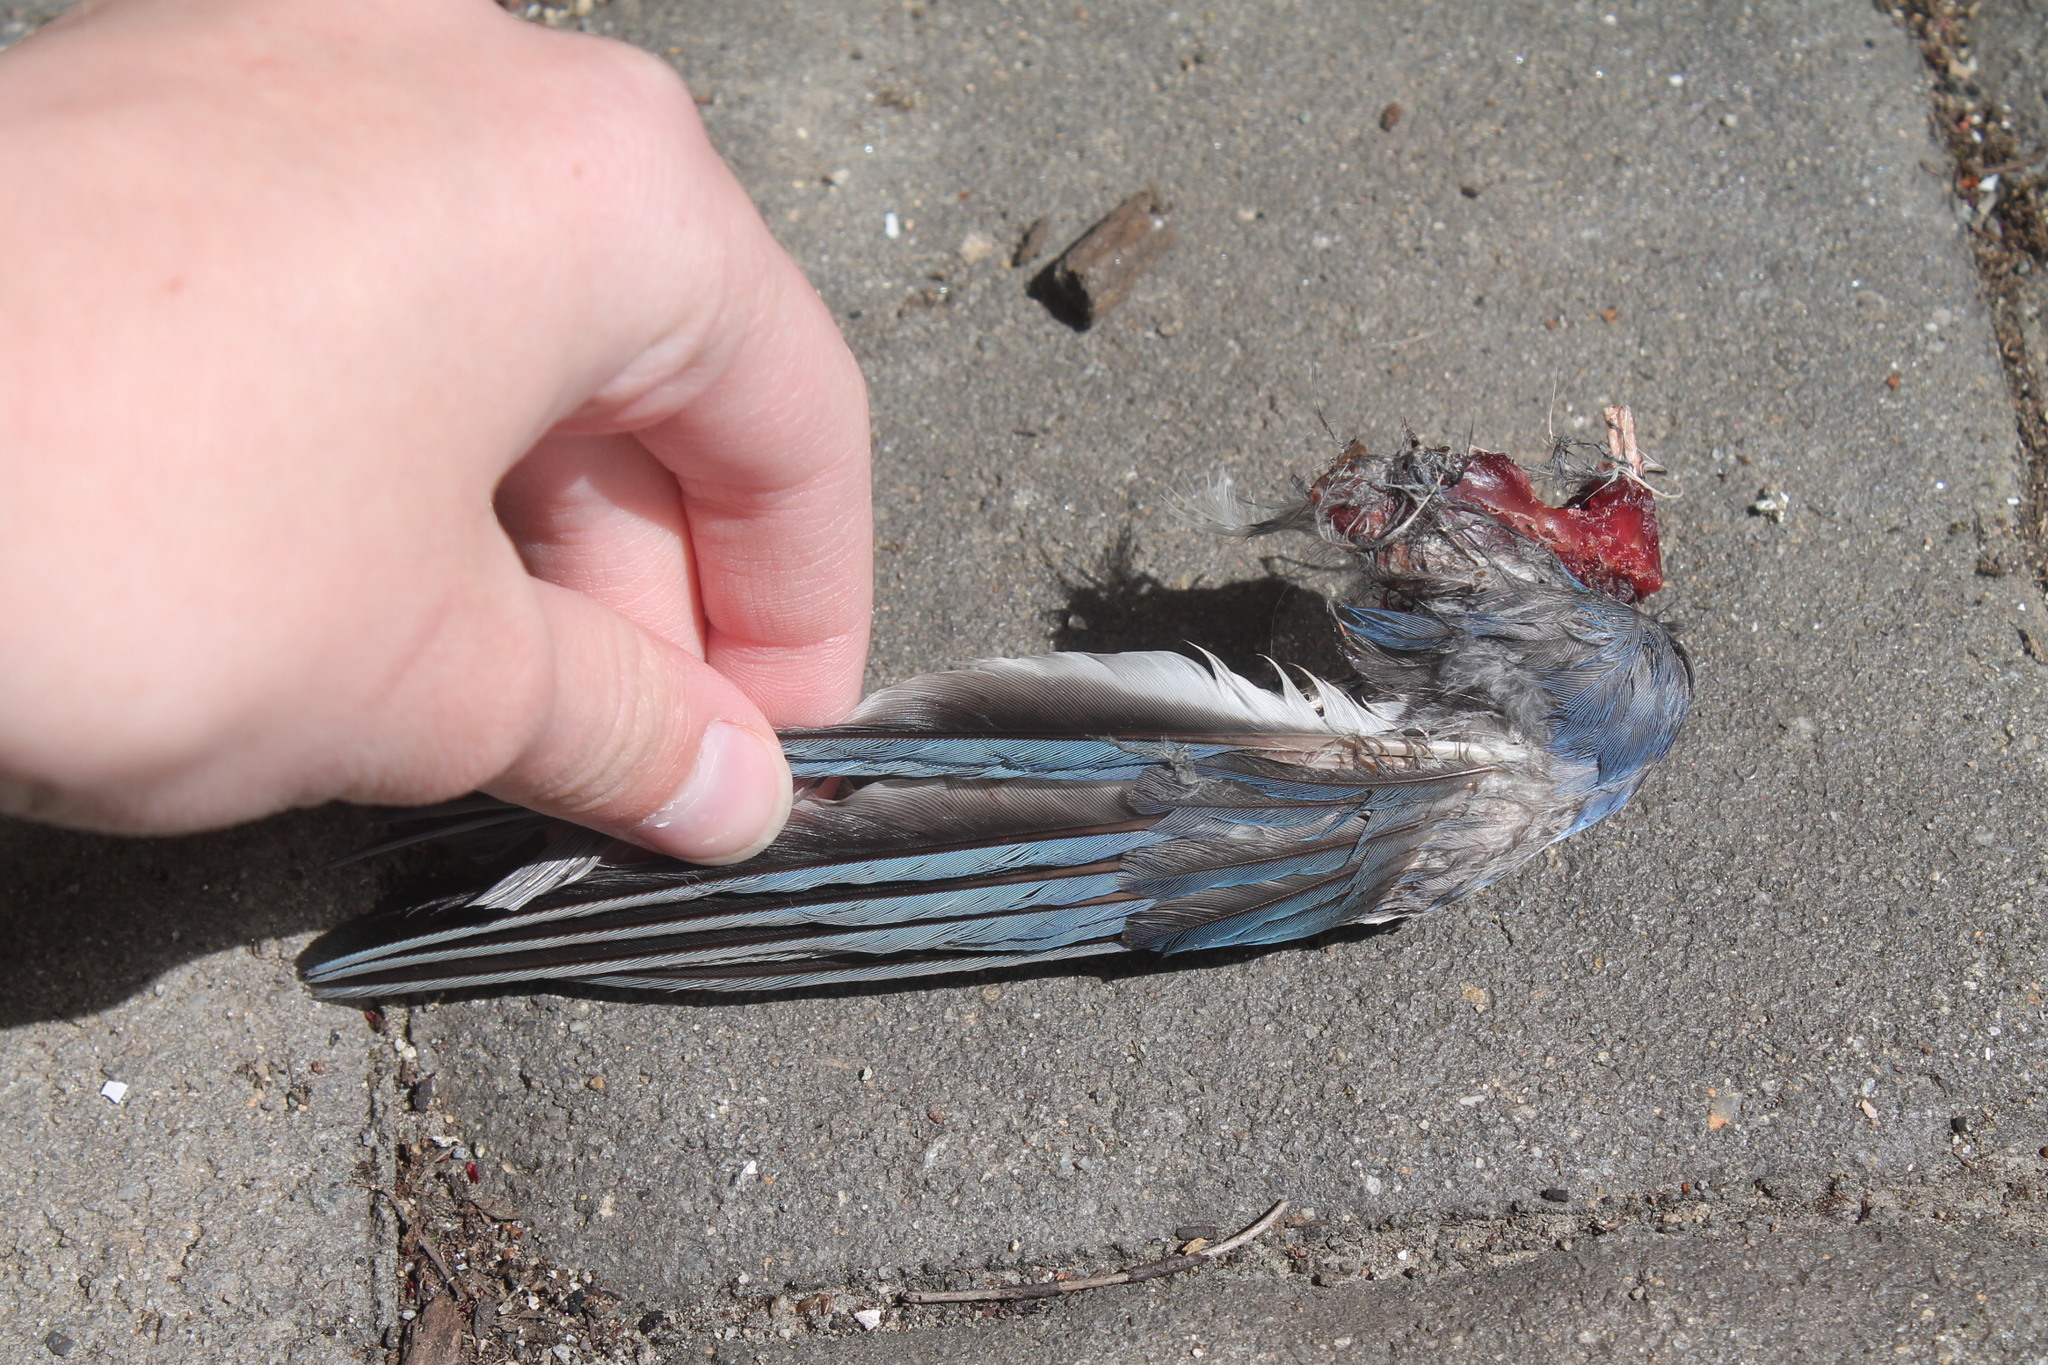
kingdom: Animalia
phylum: Chordata
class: Aves
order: Passeriformes
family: Corvidae
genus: Cyanocitta
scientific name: Cyanocitta cristata
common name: Blue jay
